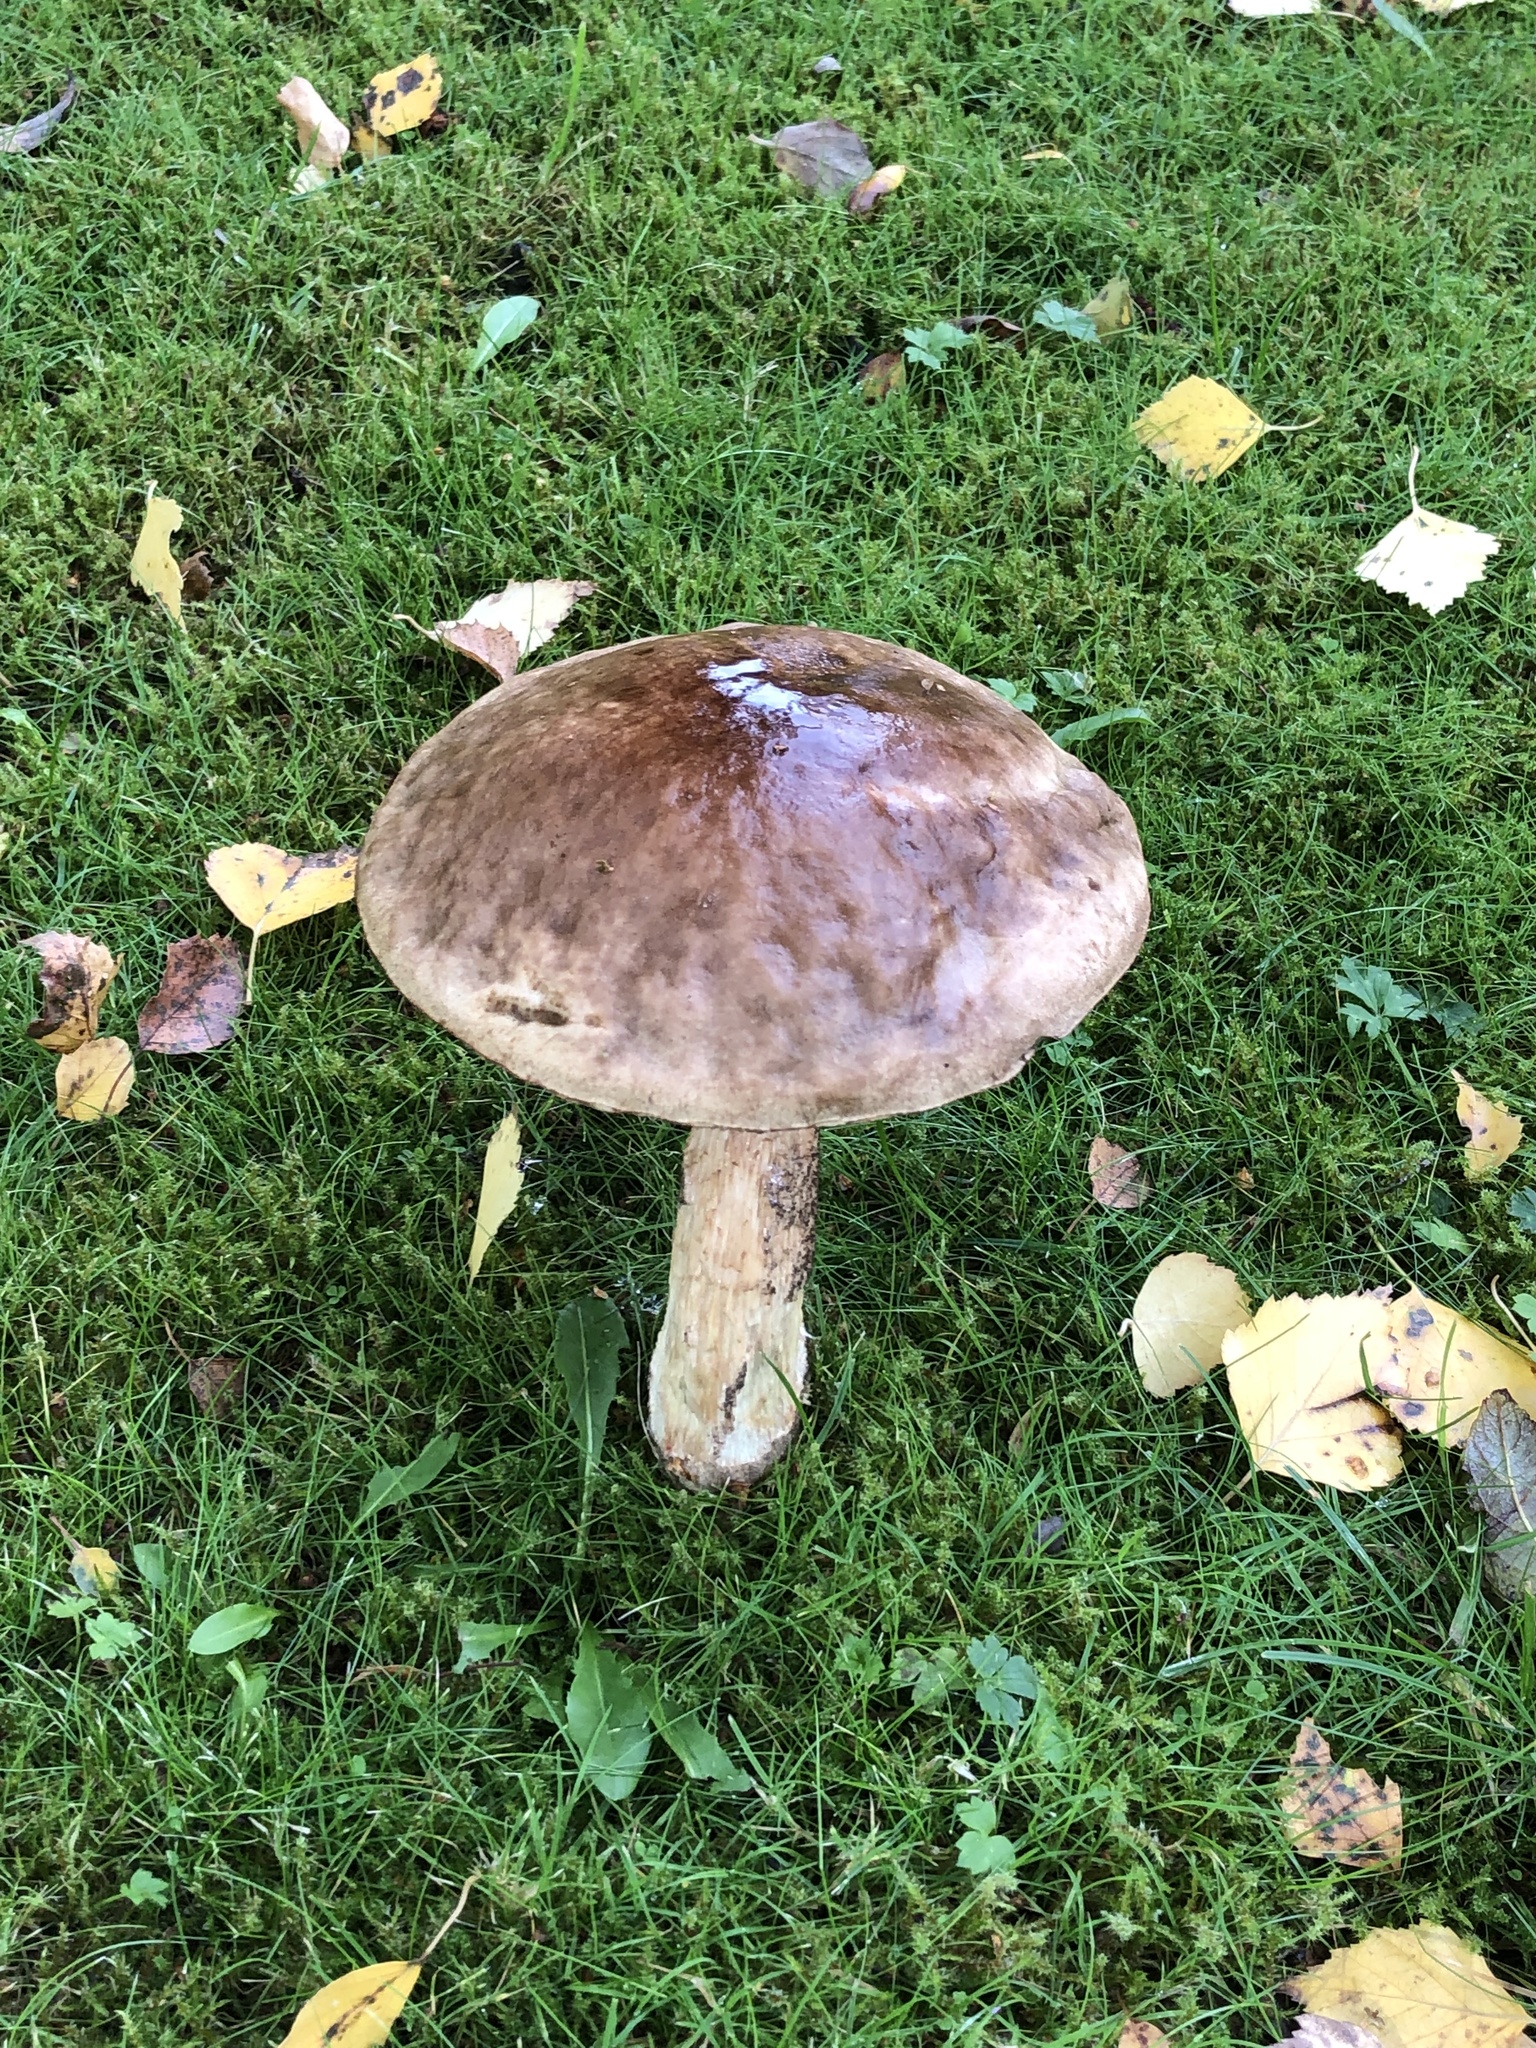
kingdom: Fungi
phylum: Basidiomycota
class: Agaricomycetes
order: Boletales
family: Boletaceae
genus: Leccinum
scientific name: Leccinum scabrum
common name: Blushing bolete
